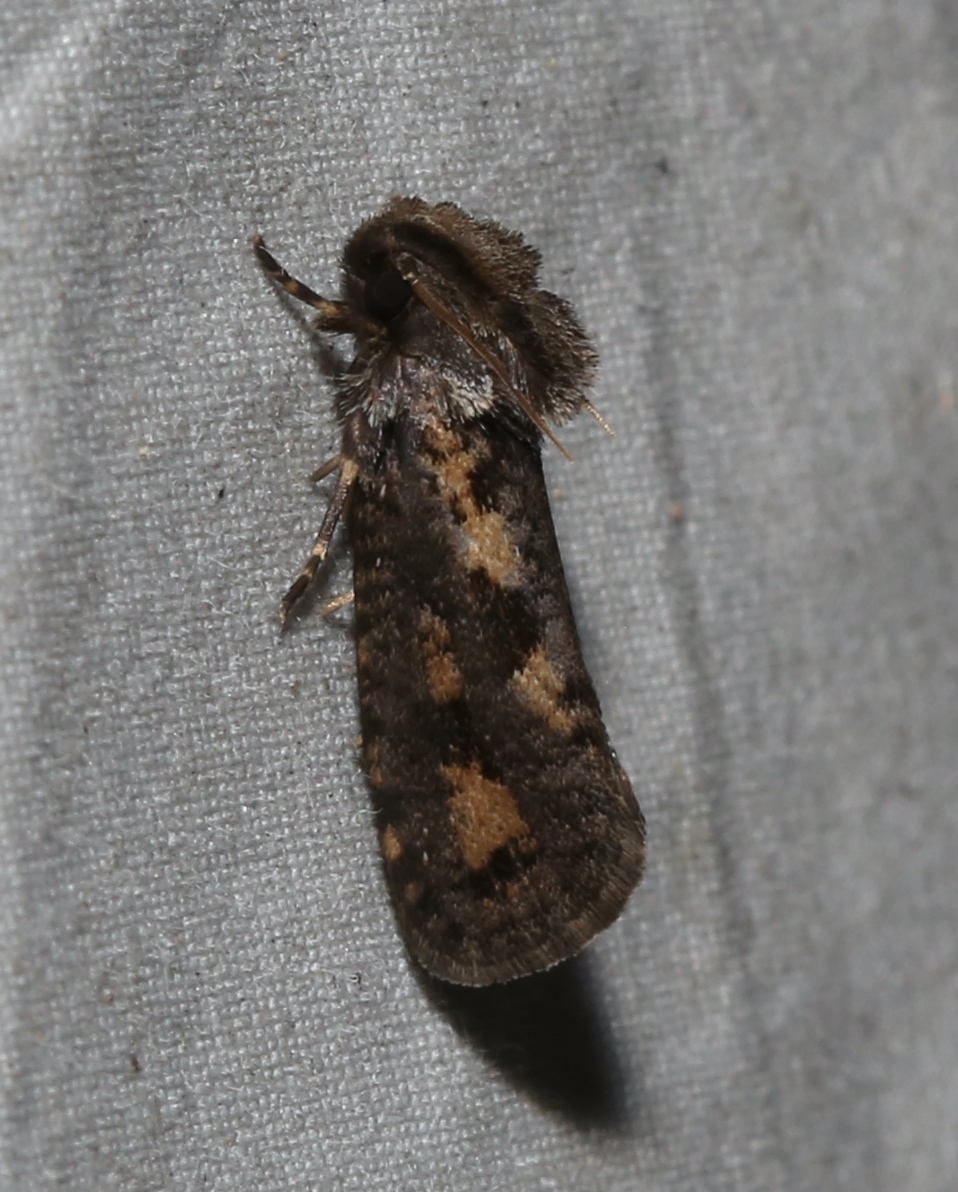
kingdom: Animalia
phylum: Arthropoda
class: Insecta
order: Lepidoptera
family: Tineidae
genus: Acrolophus
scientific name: Acrolophus popeanella
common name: Clemens' grass tubeworm moth
